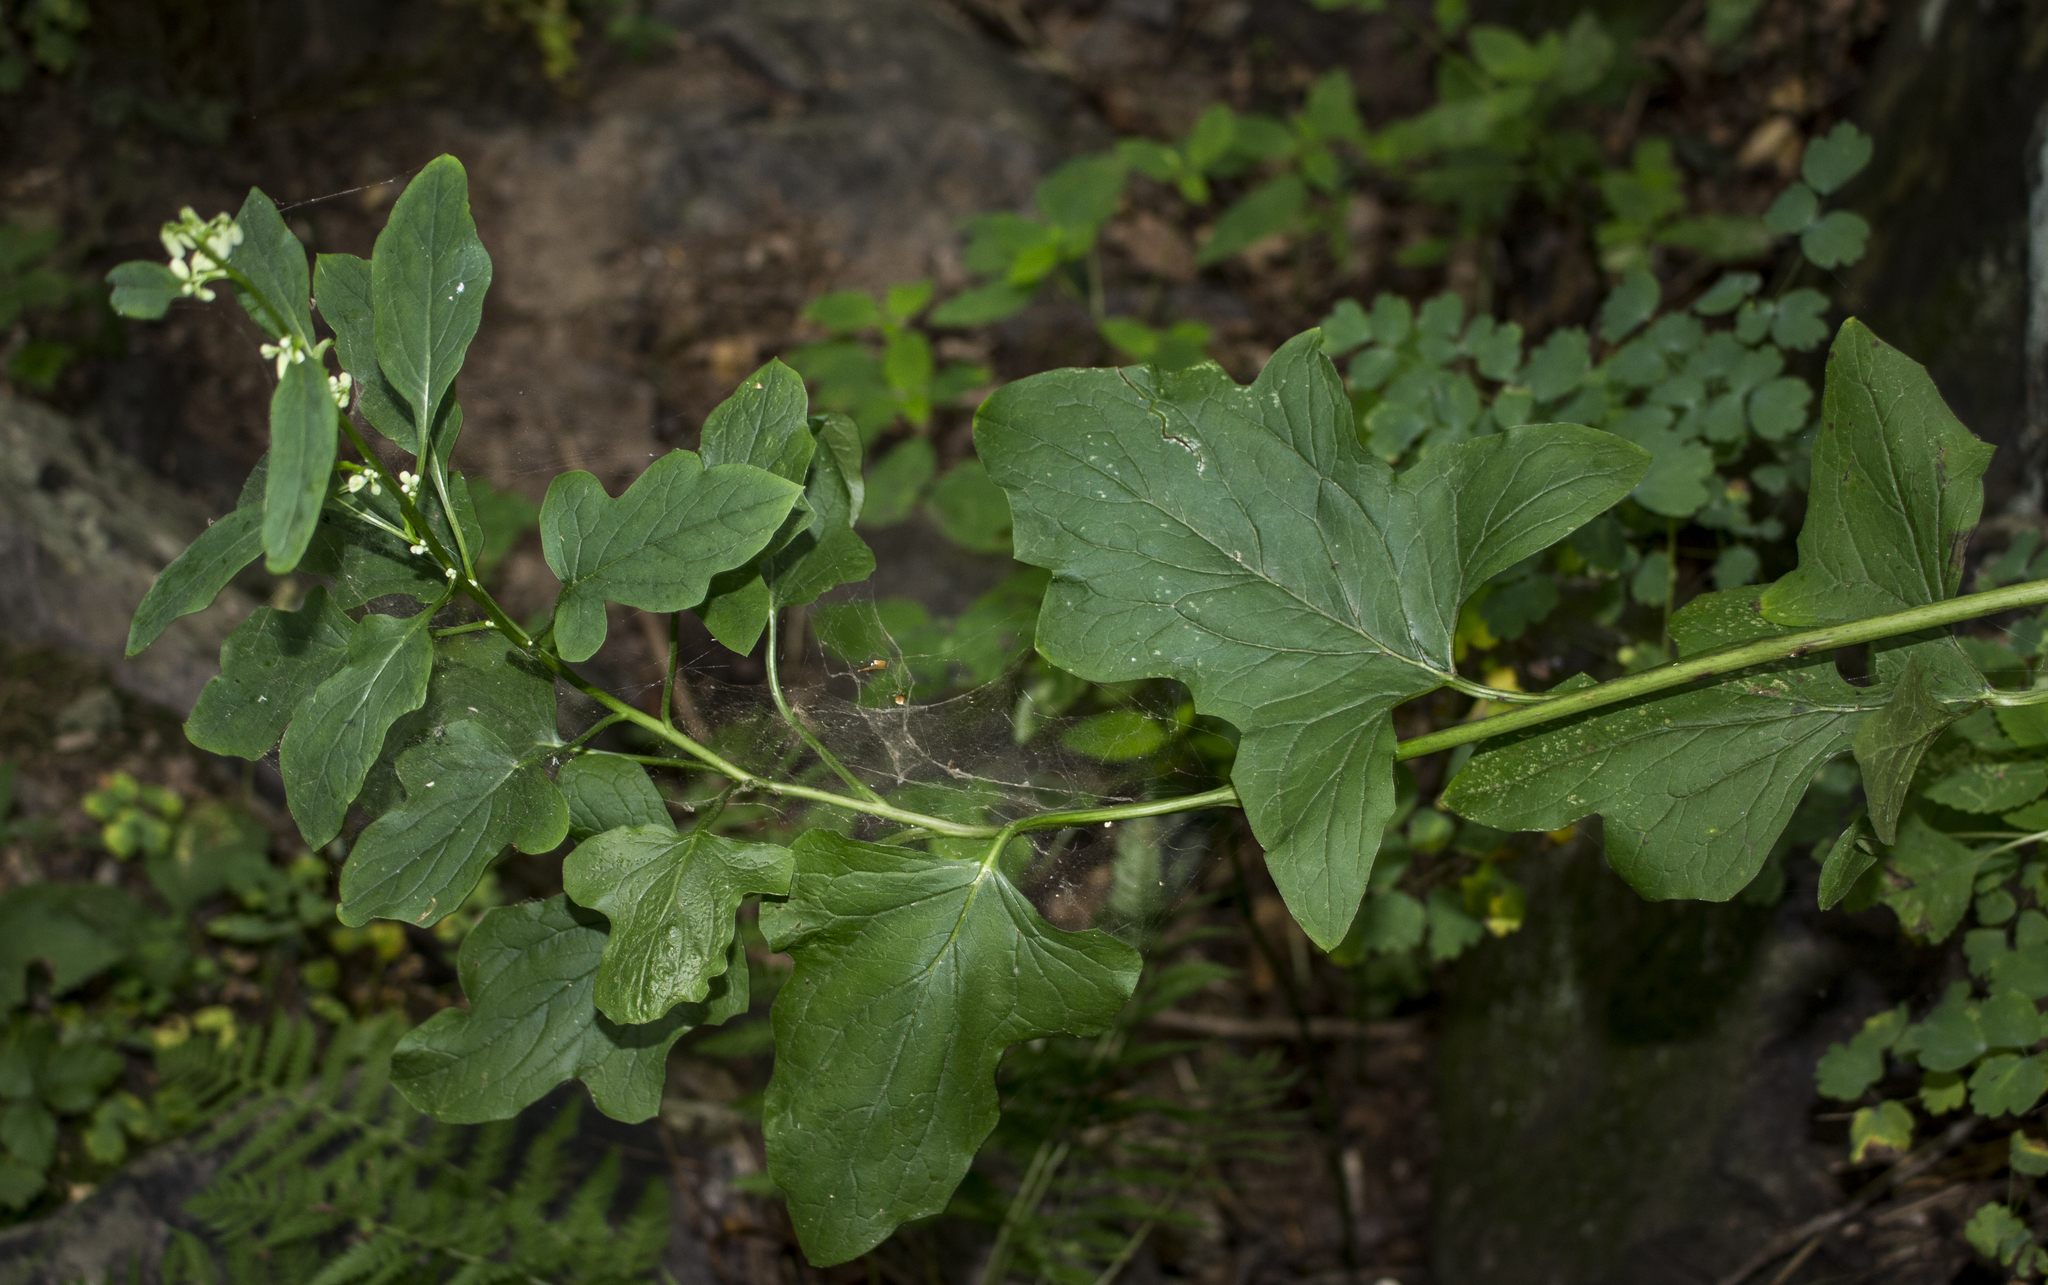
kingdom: Plantae
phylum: Tracheophyta
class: Magnoliopsida
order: Asterales
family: Asteraceae
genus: Nabalus
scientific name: Nabalus albus
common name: White rattlesnakeroot
